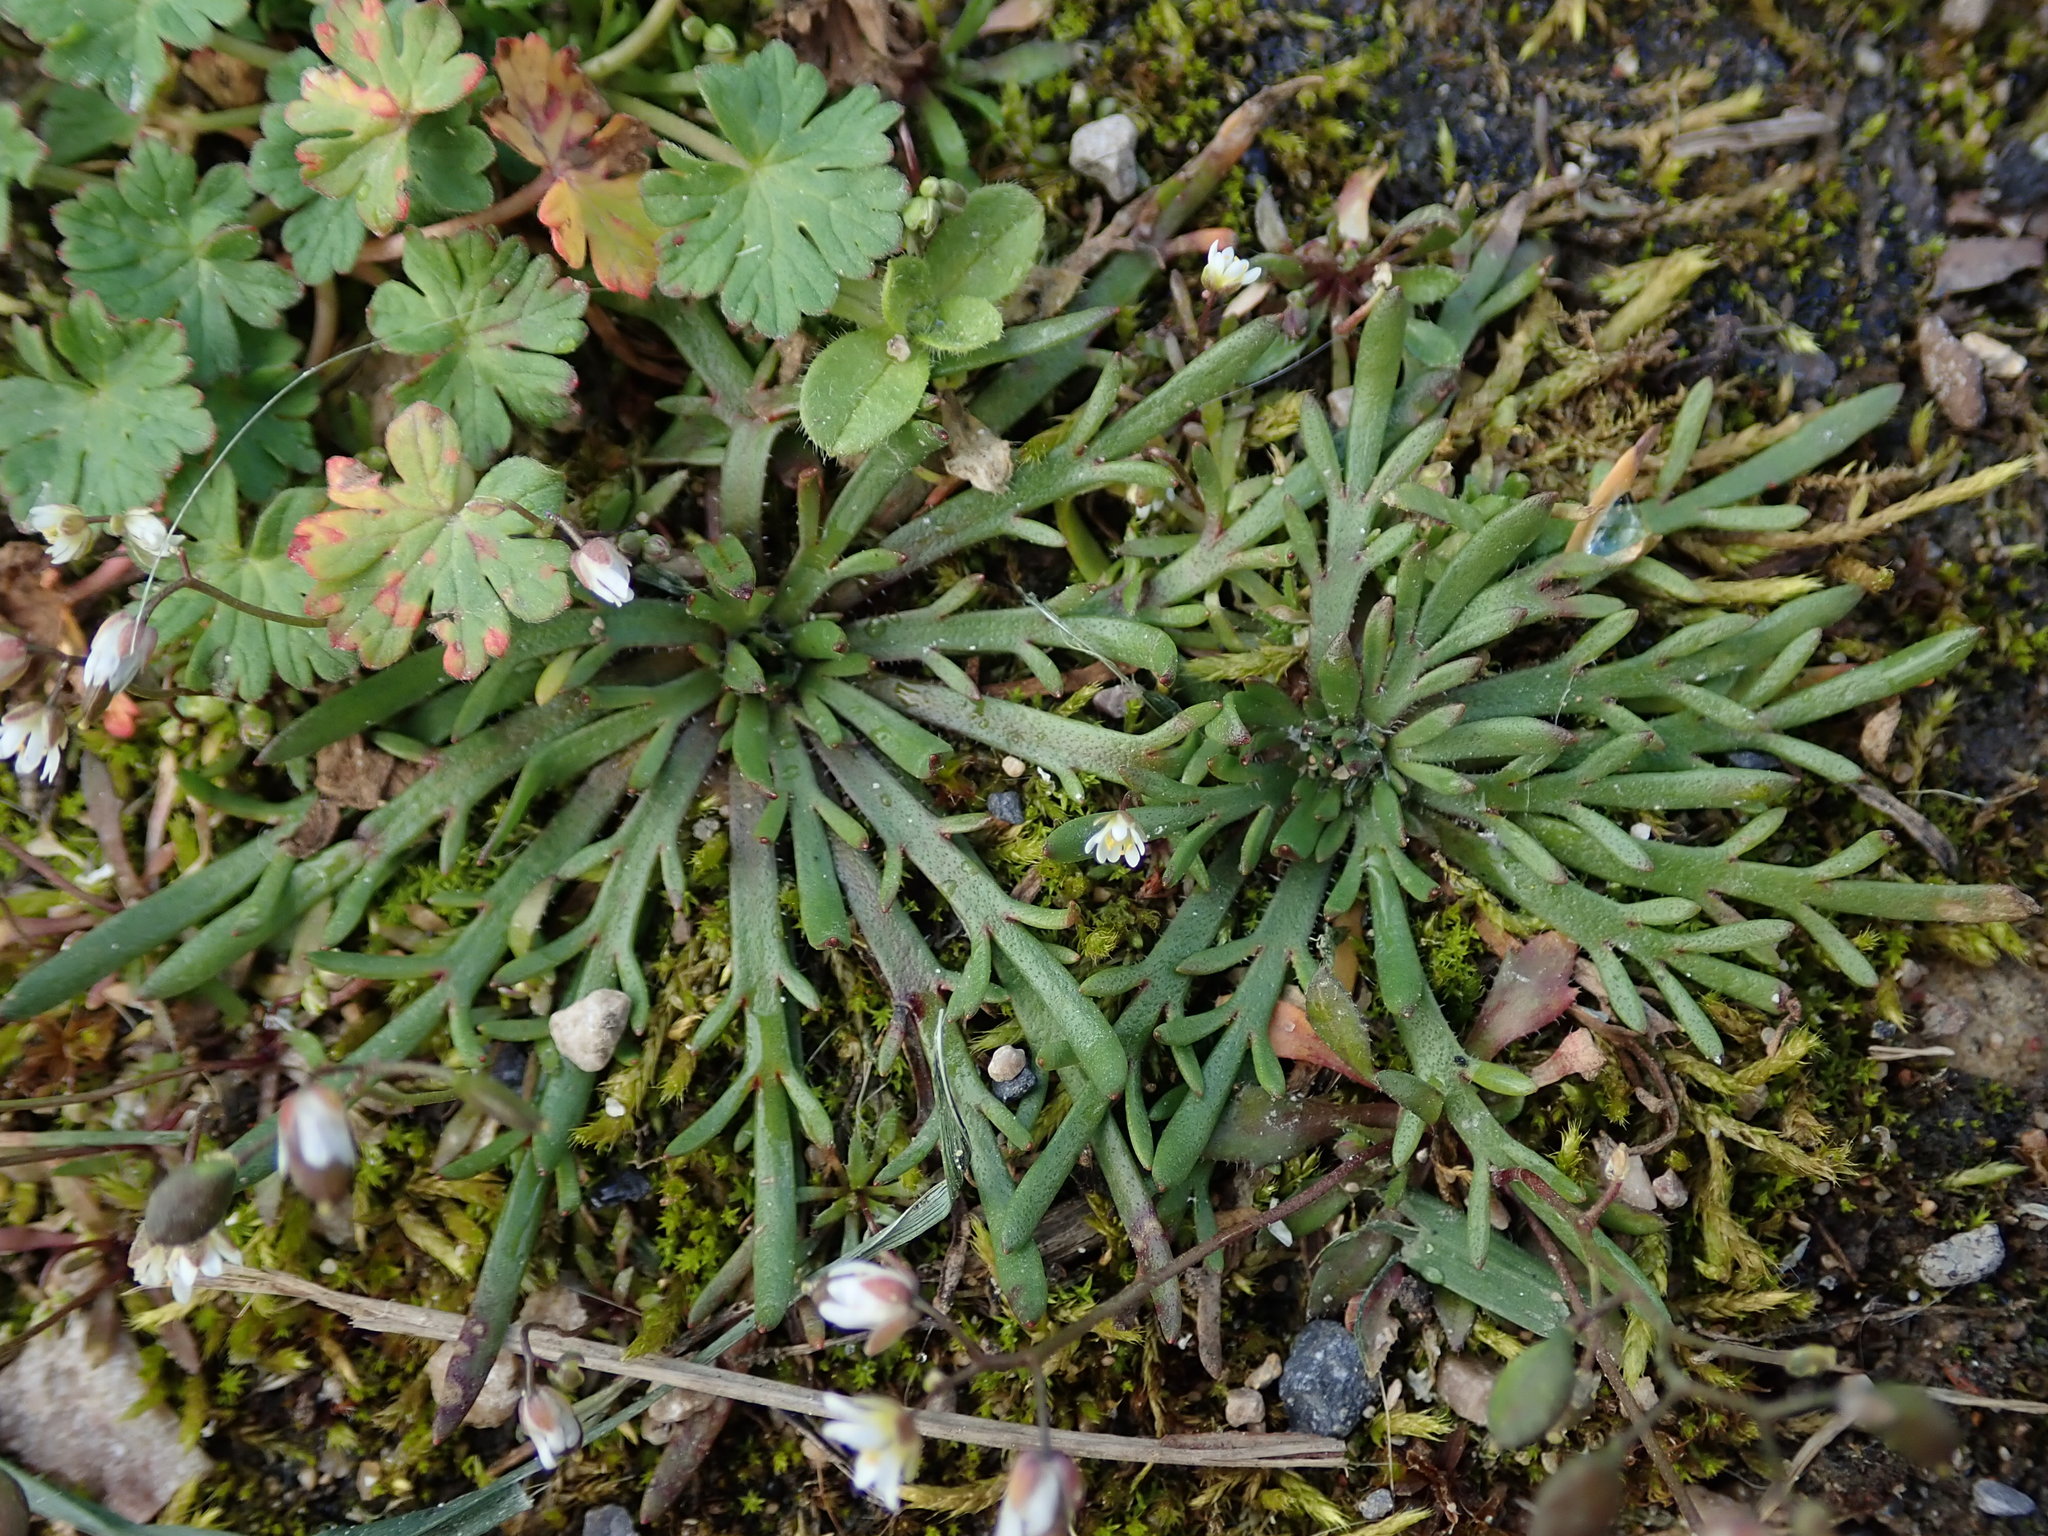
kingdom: Plantae
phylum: Tracheophyta
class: Magnoliopsida
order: Lamiales
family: Plantaginaceae
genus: Plantago
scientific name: Plantago coronopus
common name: Buck's-horn plantain
